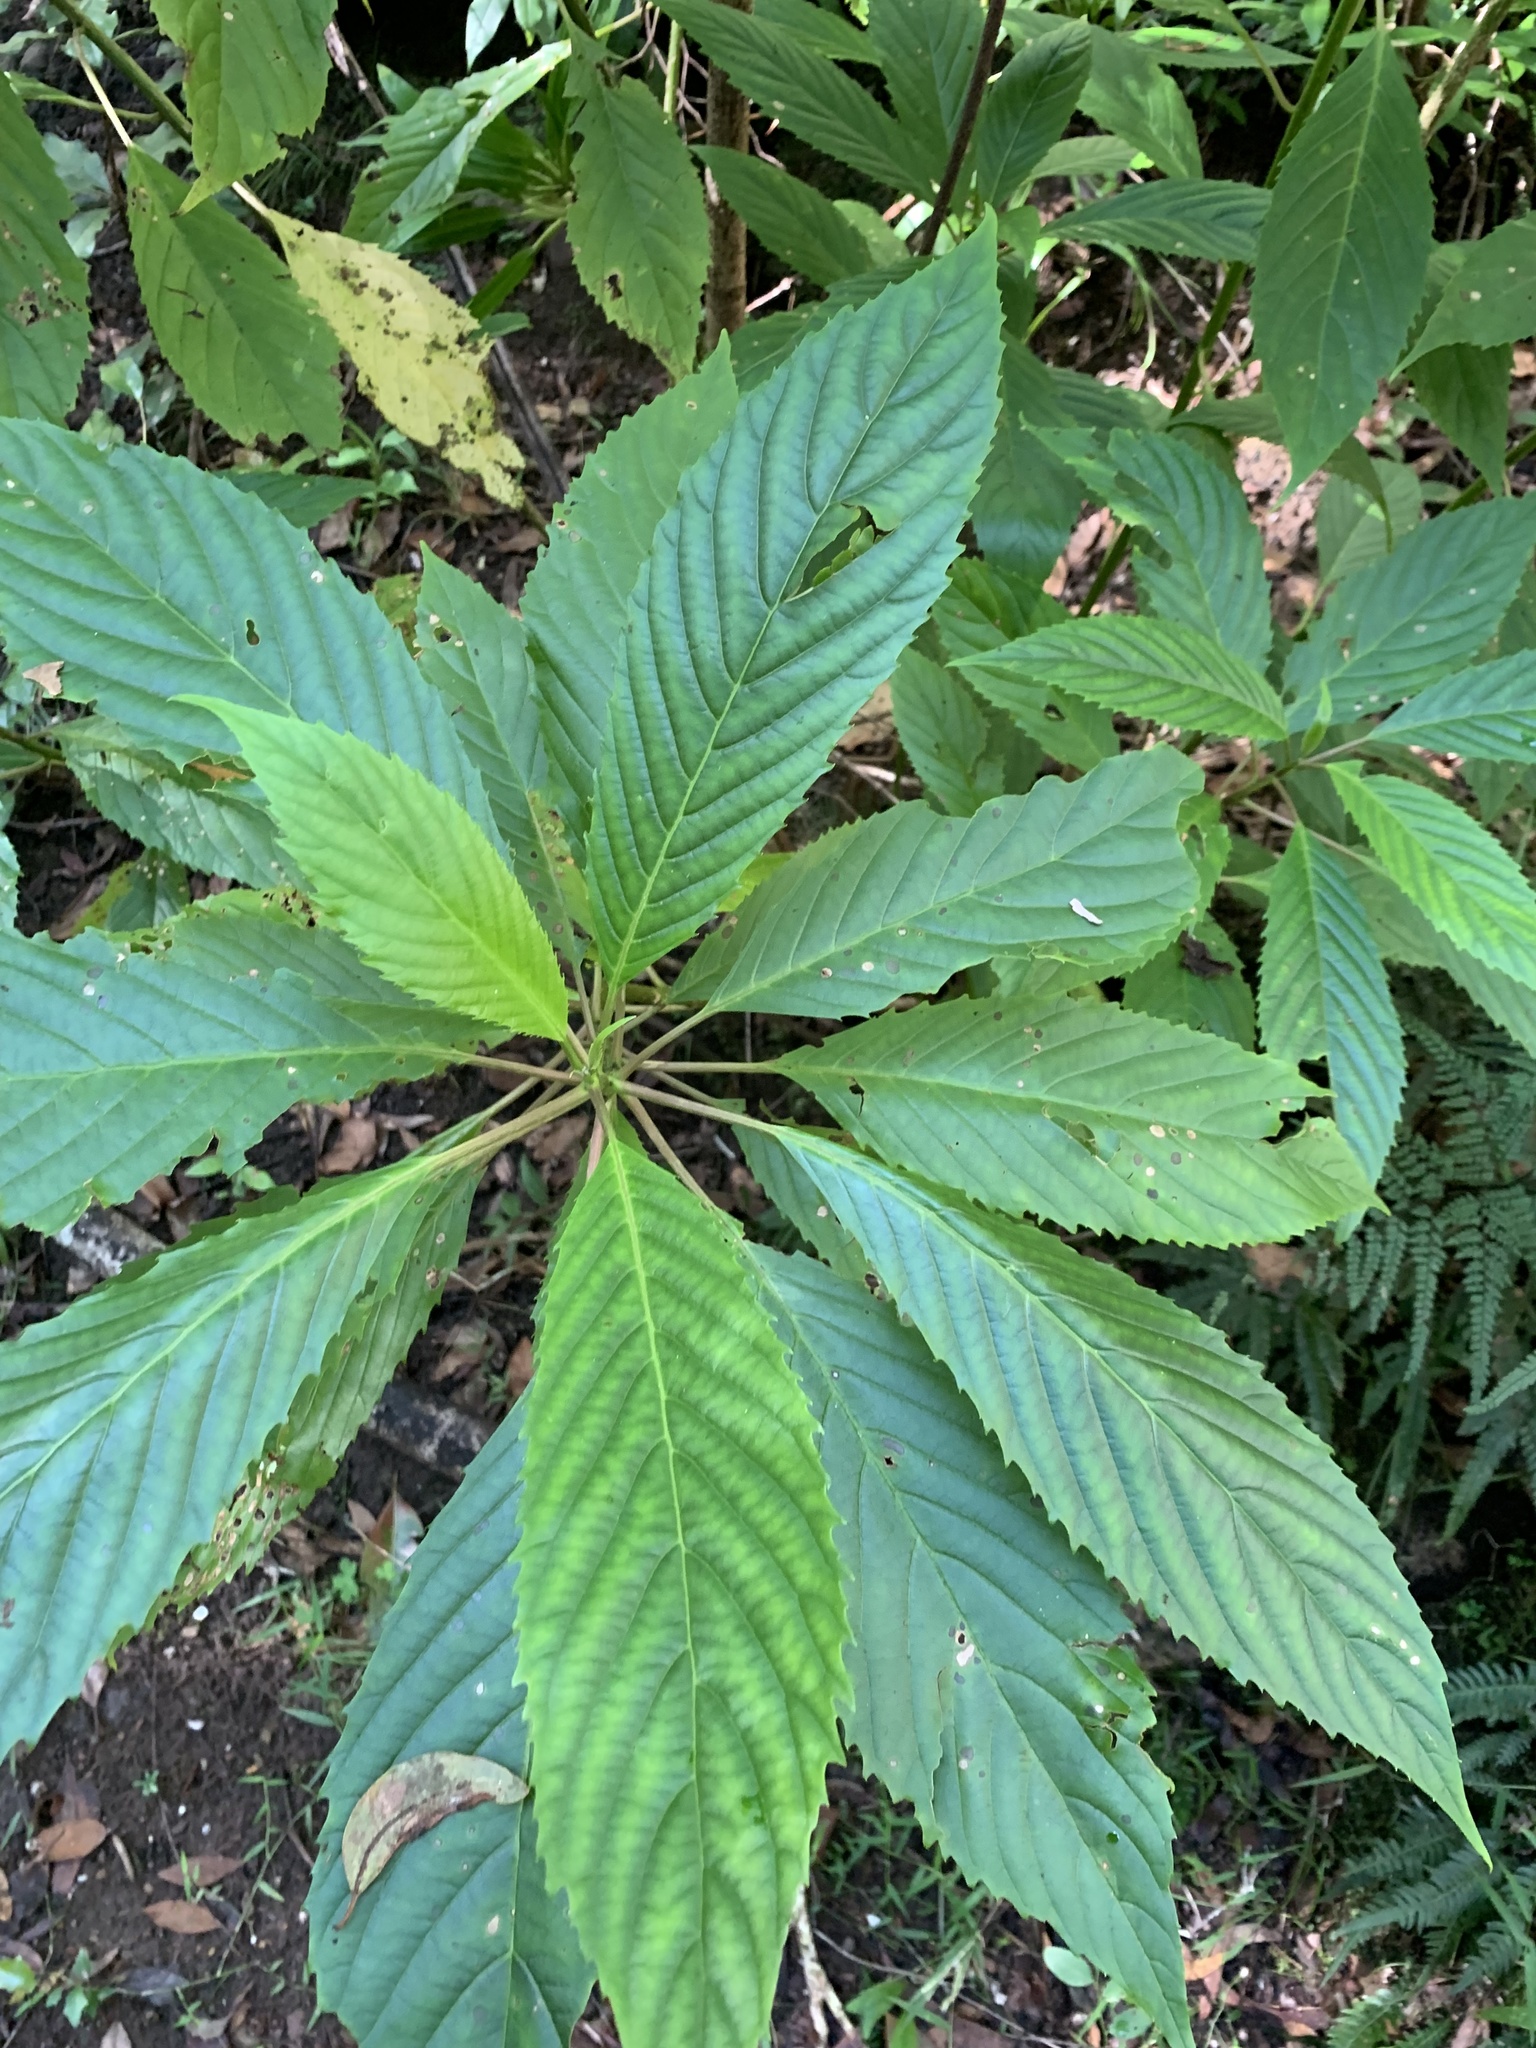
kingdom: Plantae
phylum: Tracheophyta
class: Magnoliopsida
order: Asterales
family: Rousseaceae
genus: Abrophyllum
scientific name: Abrophyllum ornans
